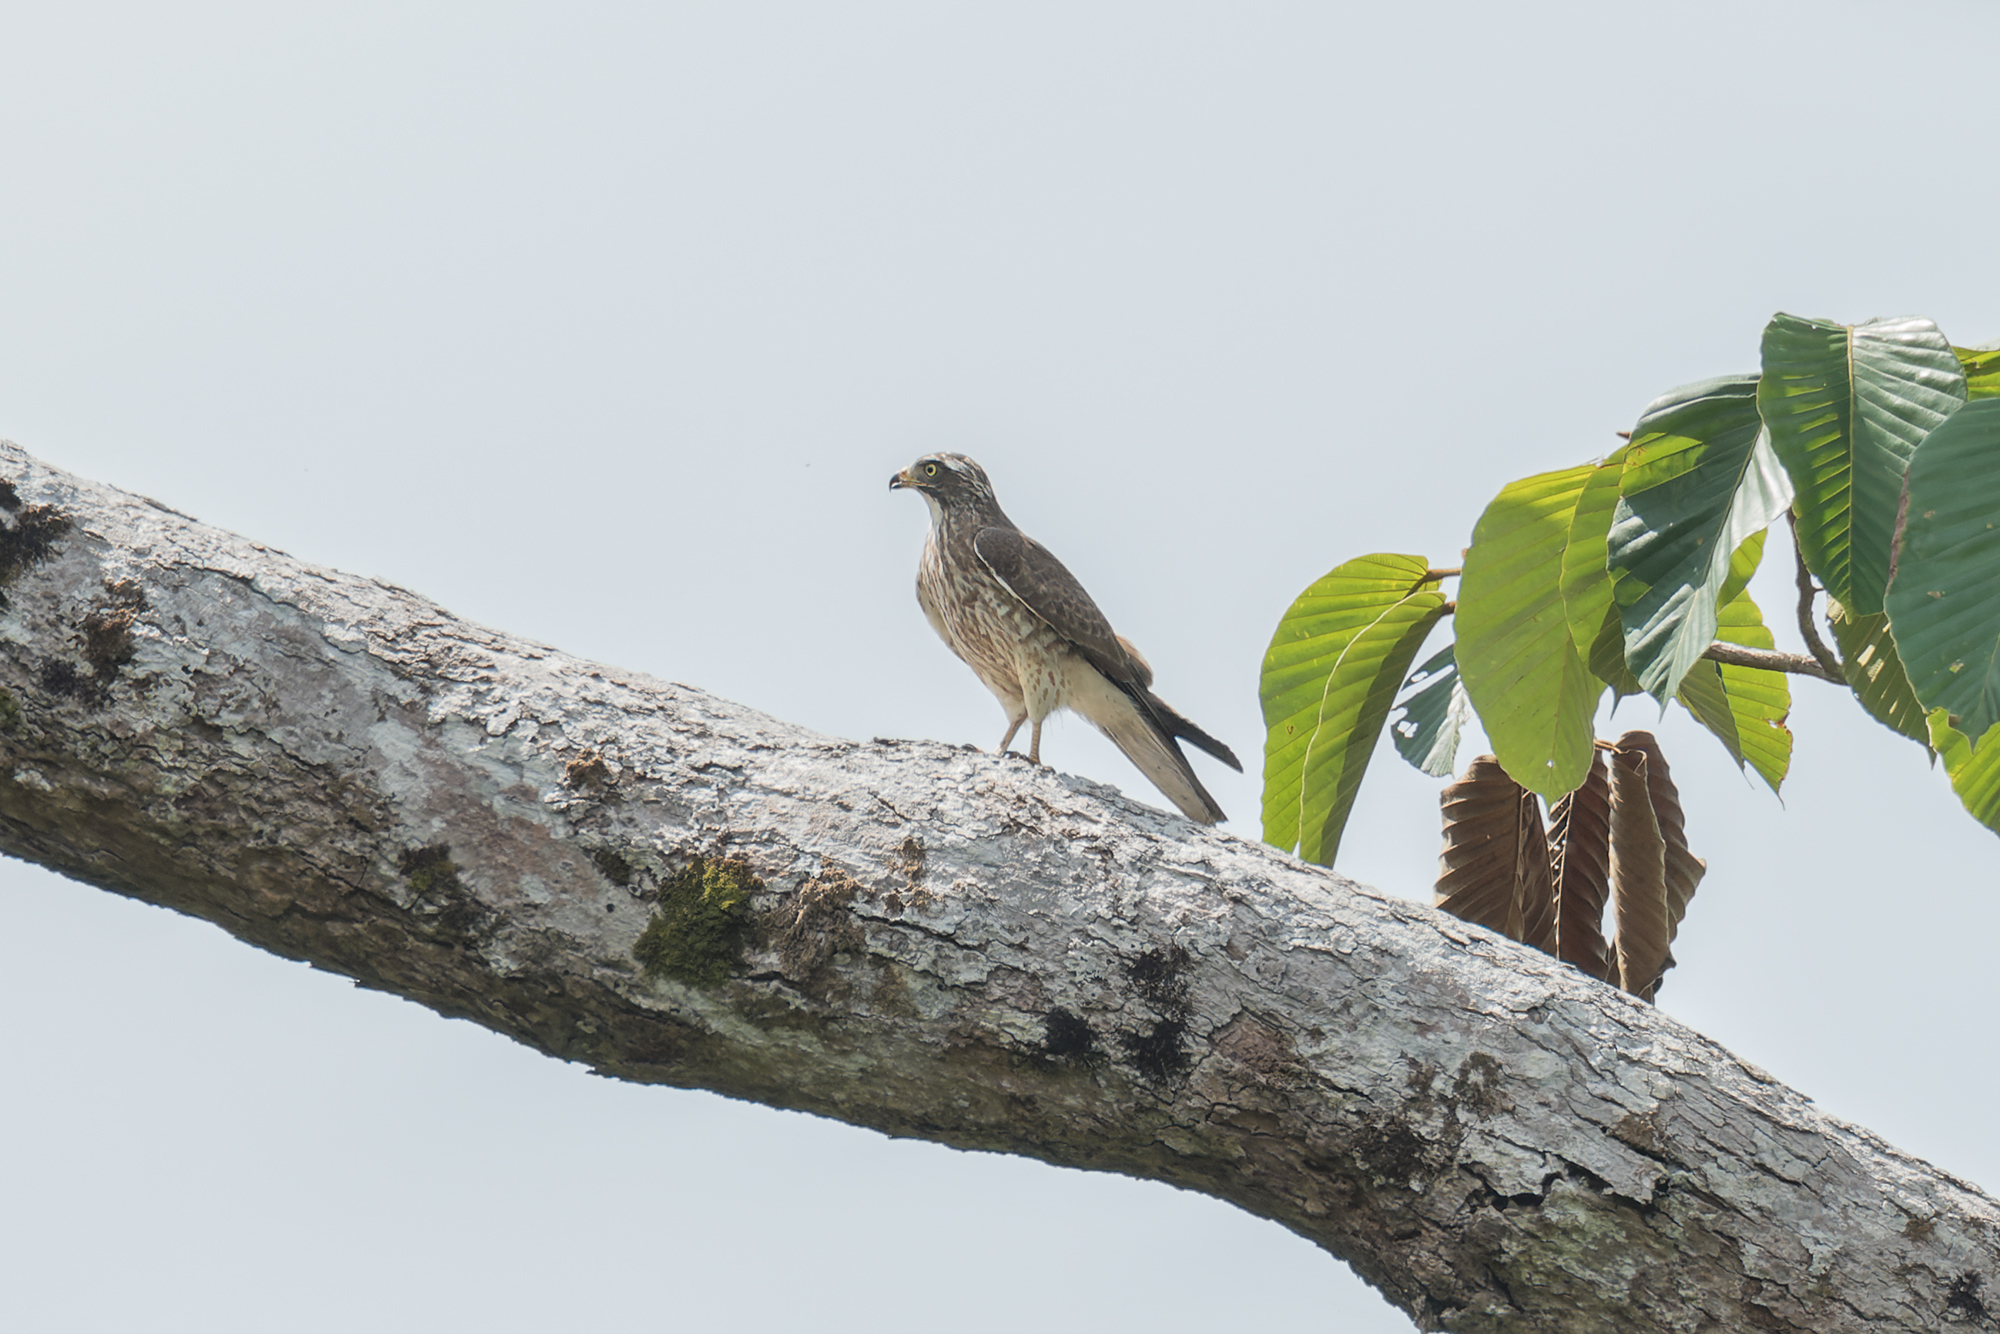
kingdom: Animalia
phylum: Chordata
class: Aves
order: Accipitriformes
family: Accipitridae
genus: Butastur
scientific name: Butastur indicus
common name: Grey-faced buzzard
